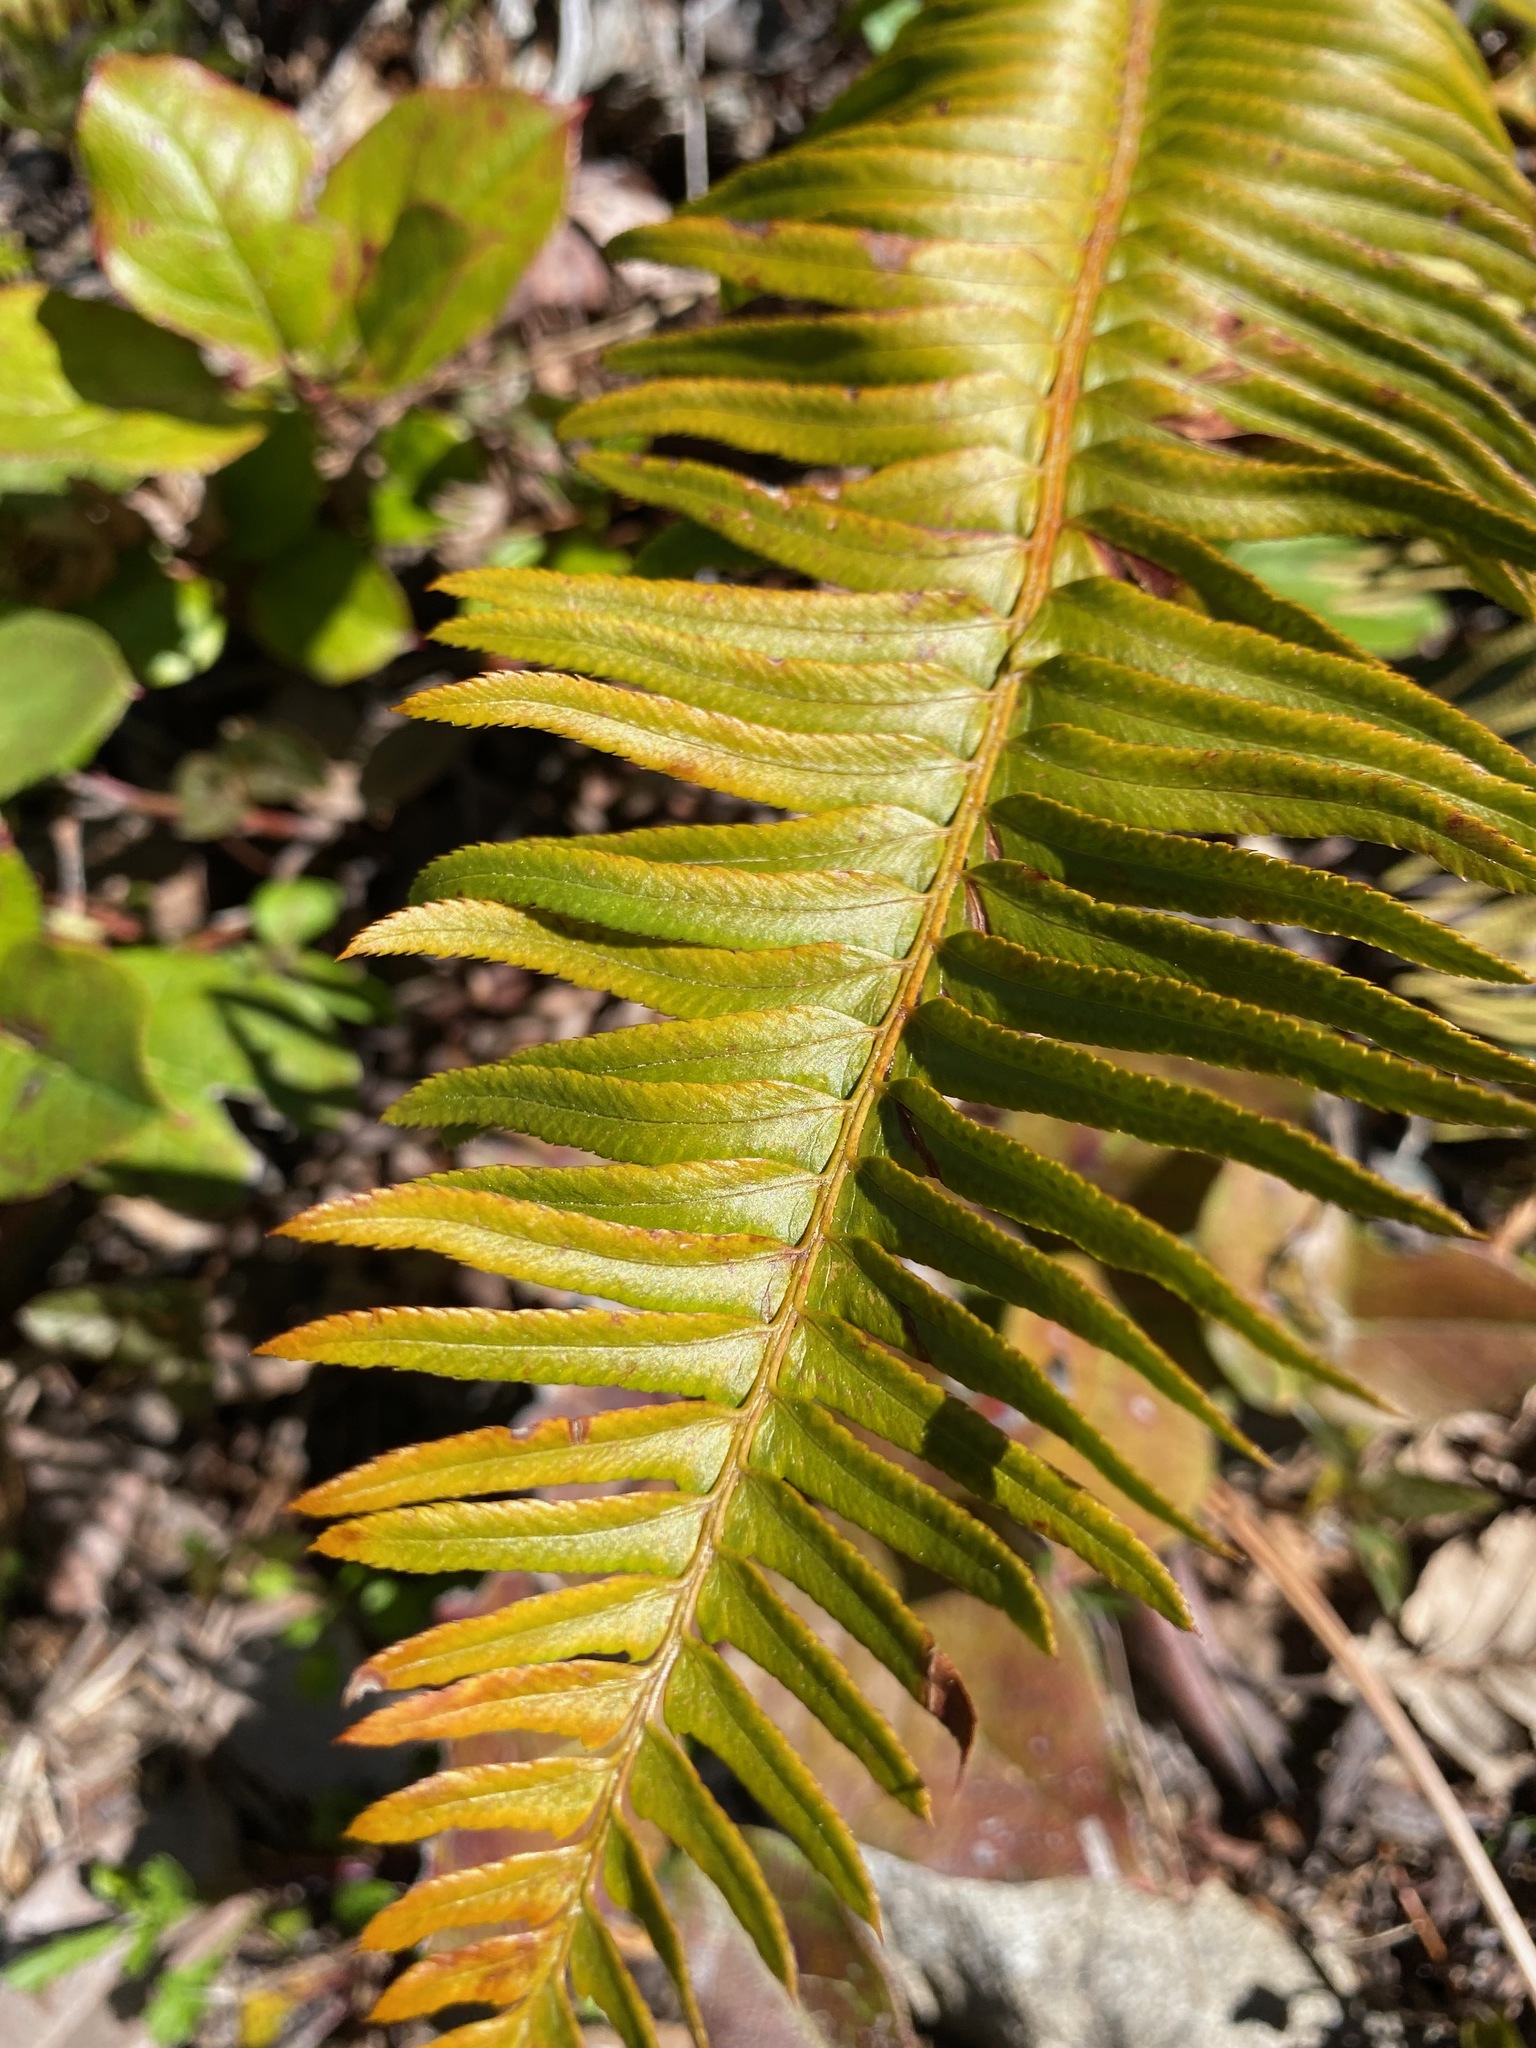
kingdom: Plantae
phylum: Tracheophyta
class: Polypodiopsida
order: Polypodiales
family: Dryopteridaceae
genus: Polystichum
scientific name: Polystichum munitum
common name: Western sword-fern
